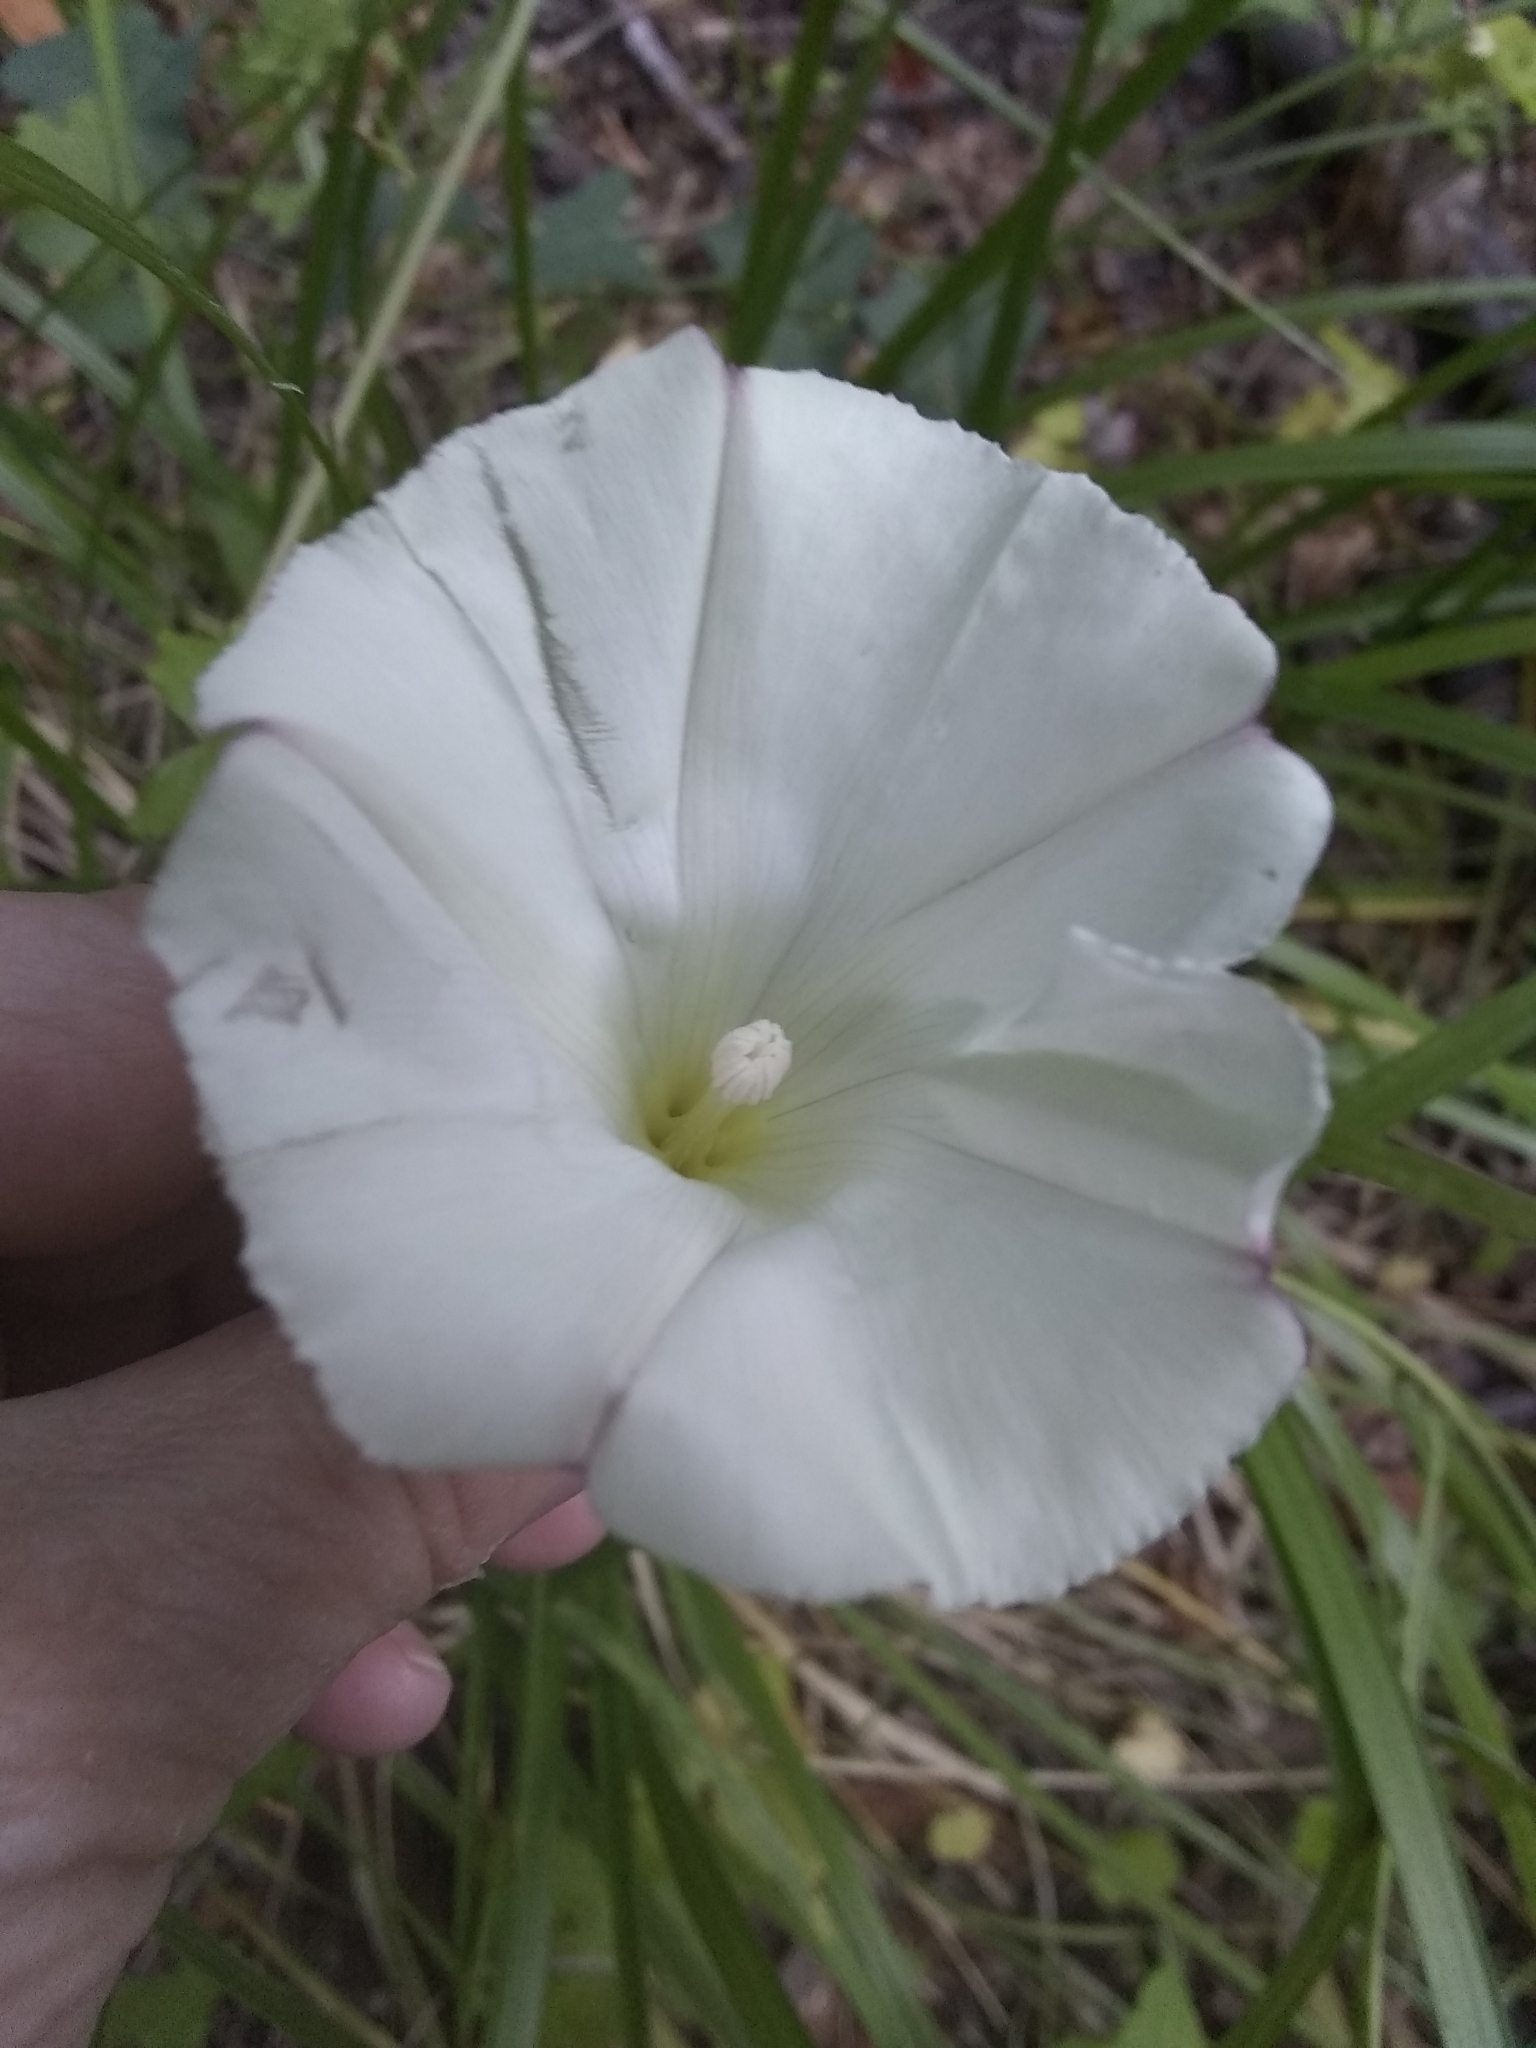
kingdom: Plantae
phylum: Tracheophyta
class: Magnoliopsida
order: Solanales
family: Convolvulaceae
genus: Calystegia
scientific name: Calystegia purpurata
